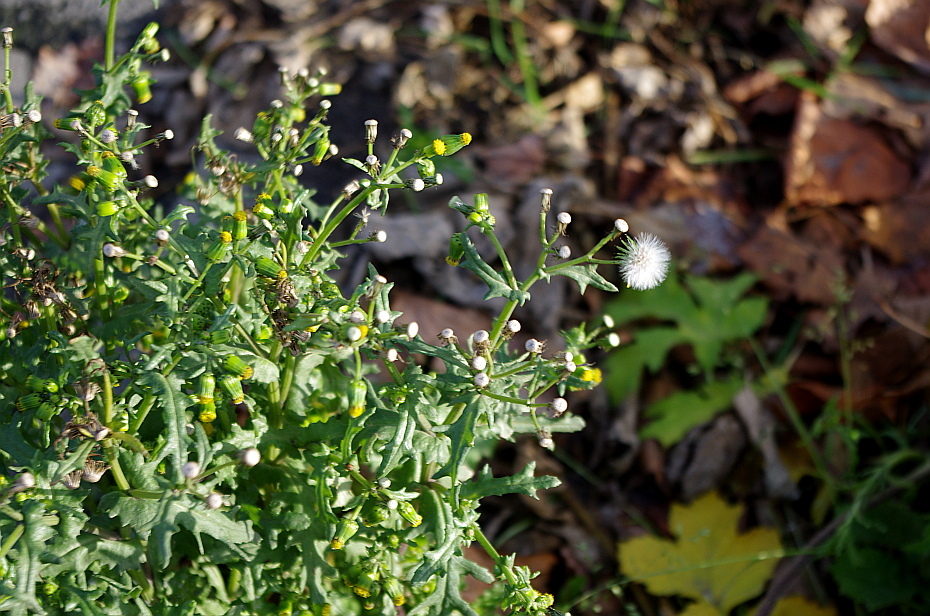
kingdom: Plantae
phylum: Tracheophyta
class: Magnoliopsida
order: Asterales
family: Asteraceae
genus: Senecio
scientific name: Senecio vulgaris
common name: Old-man-in-the-spring
